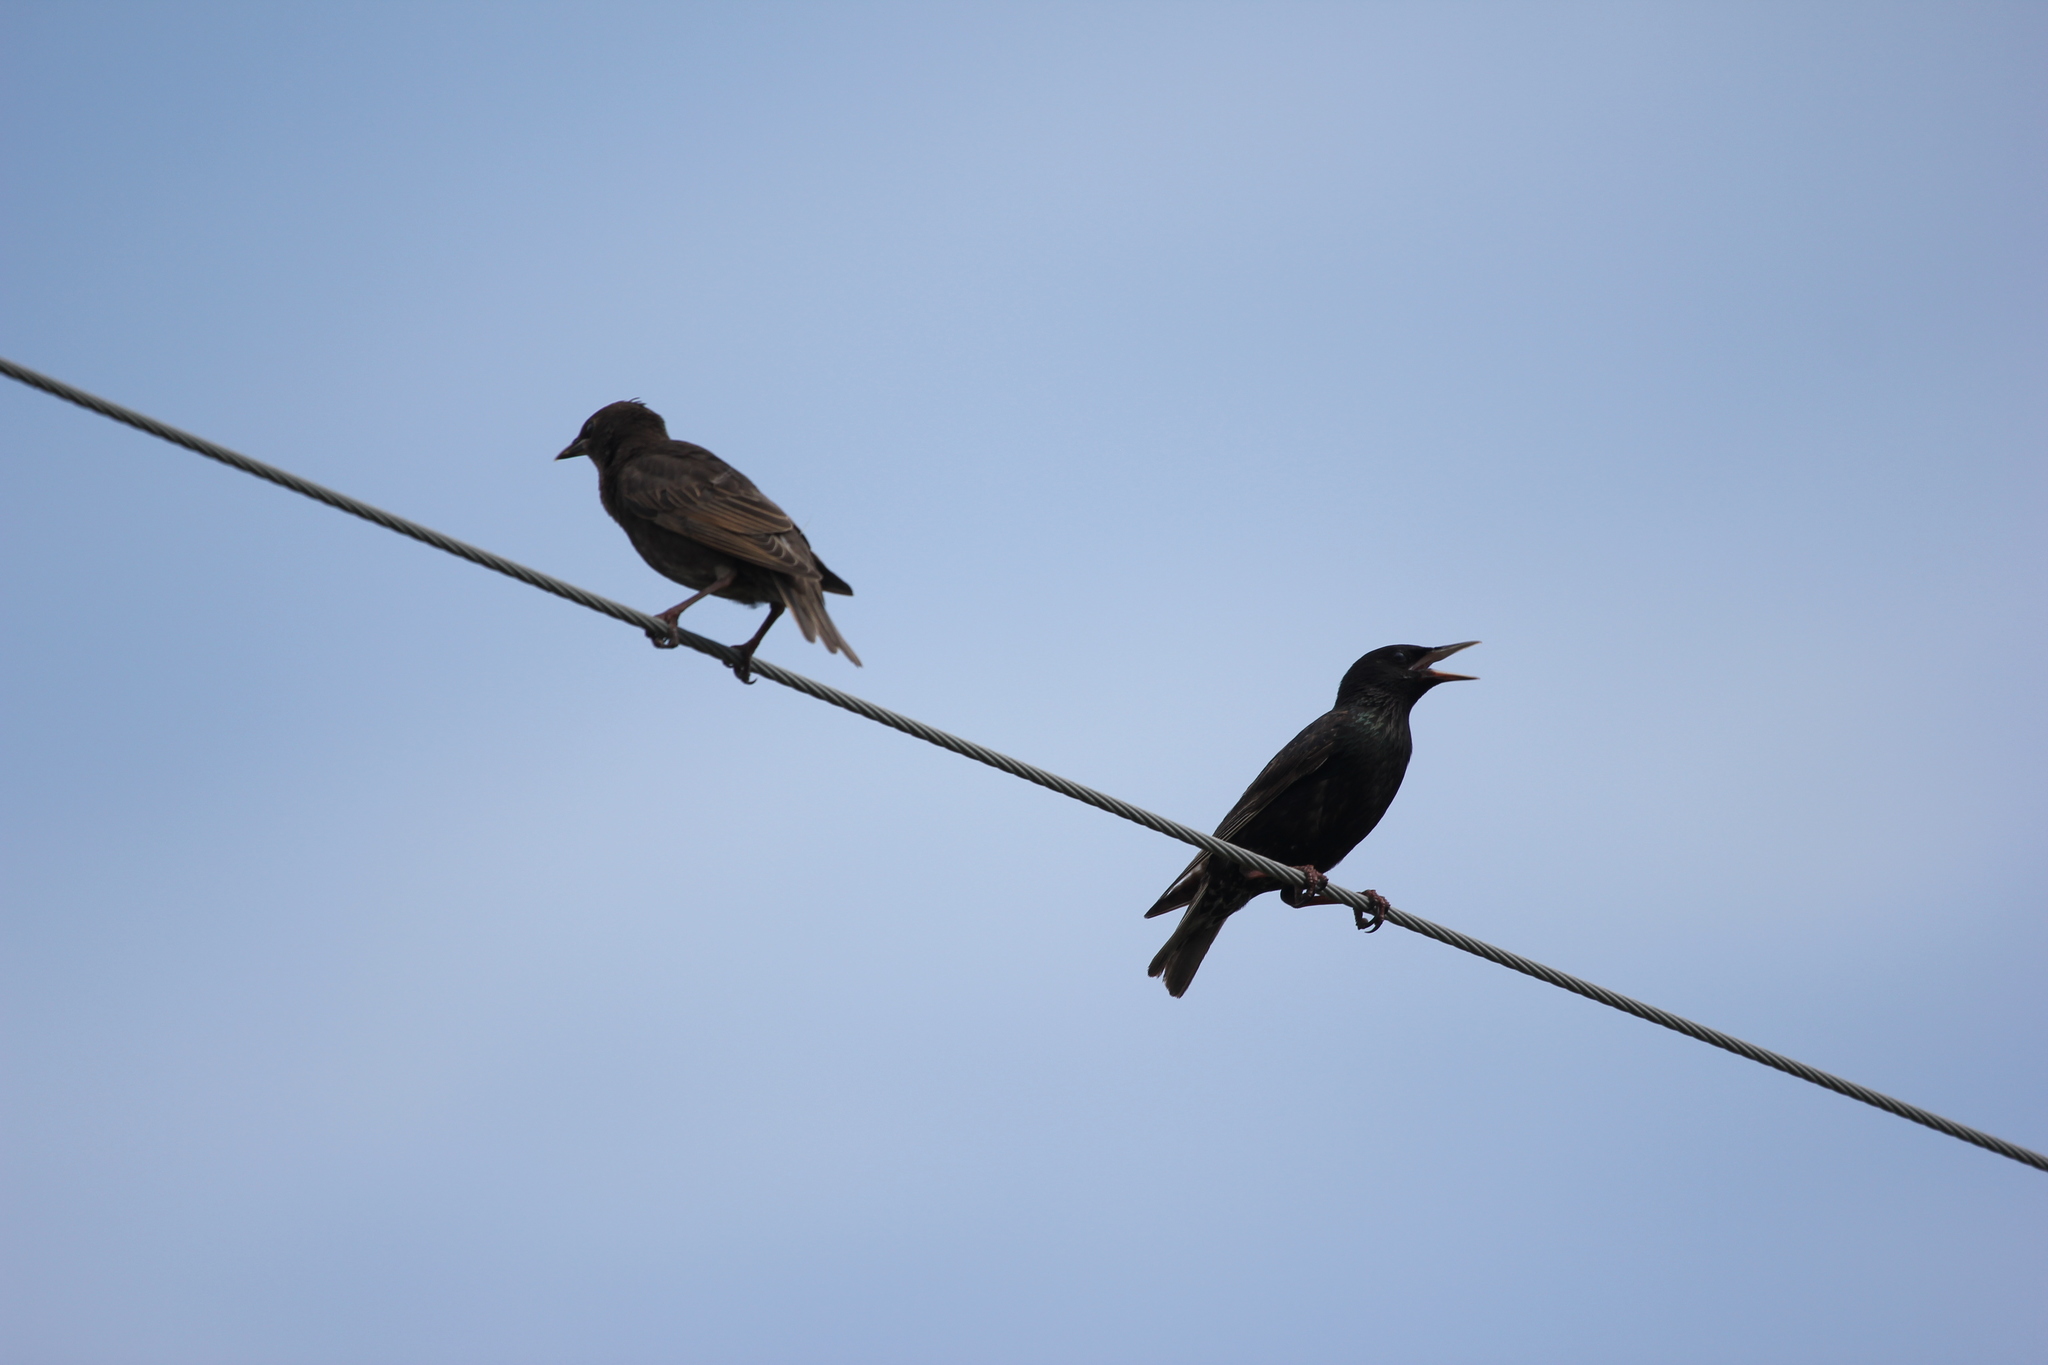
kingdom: Animalia
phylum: Chordata
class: Aves
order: Passeriformes
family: Sturnidae
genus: Sturnus
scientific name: Sturnus vulgaris
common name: Common starling
